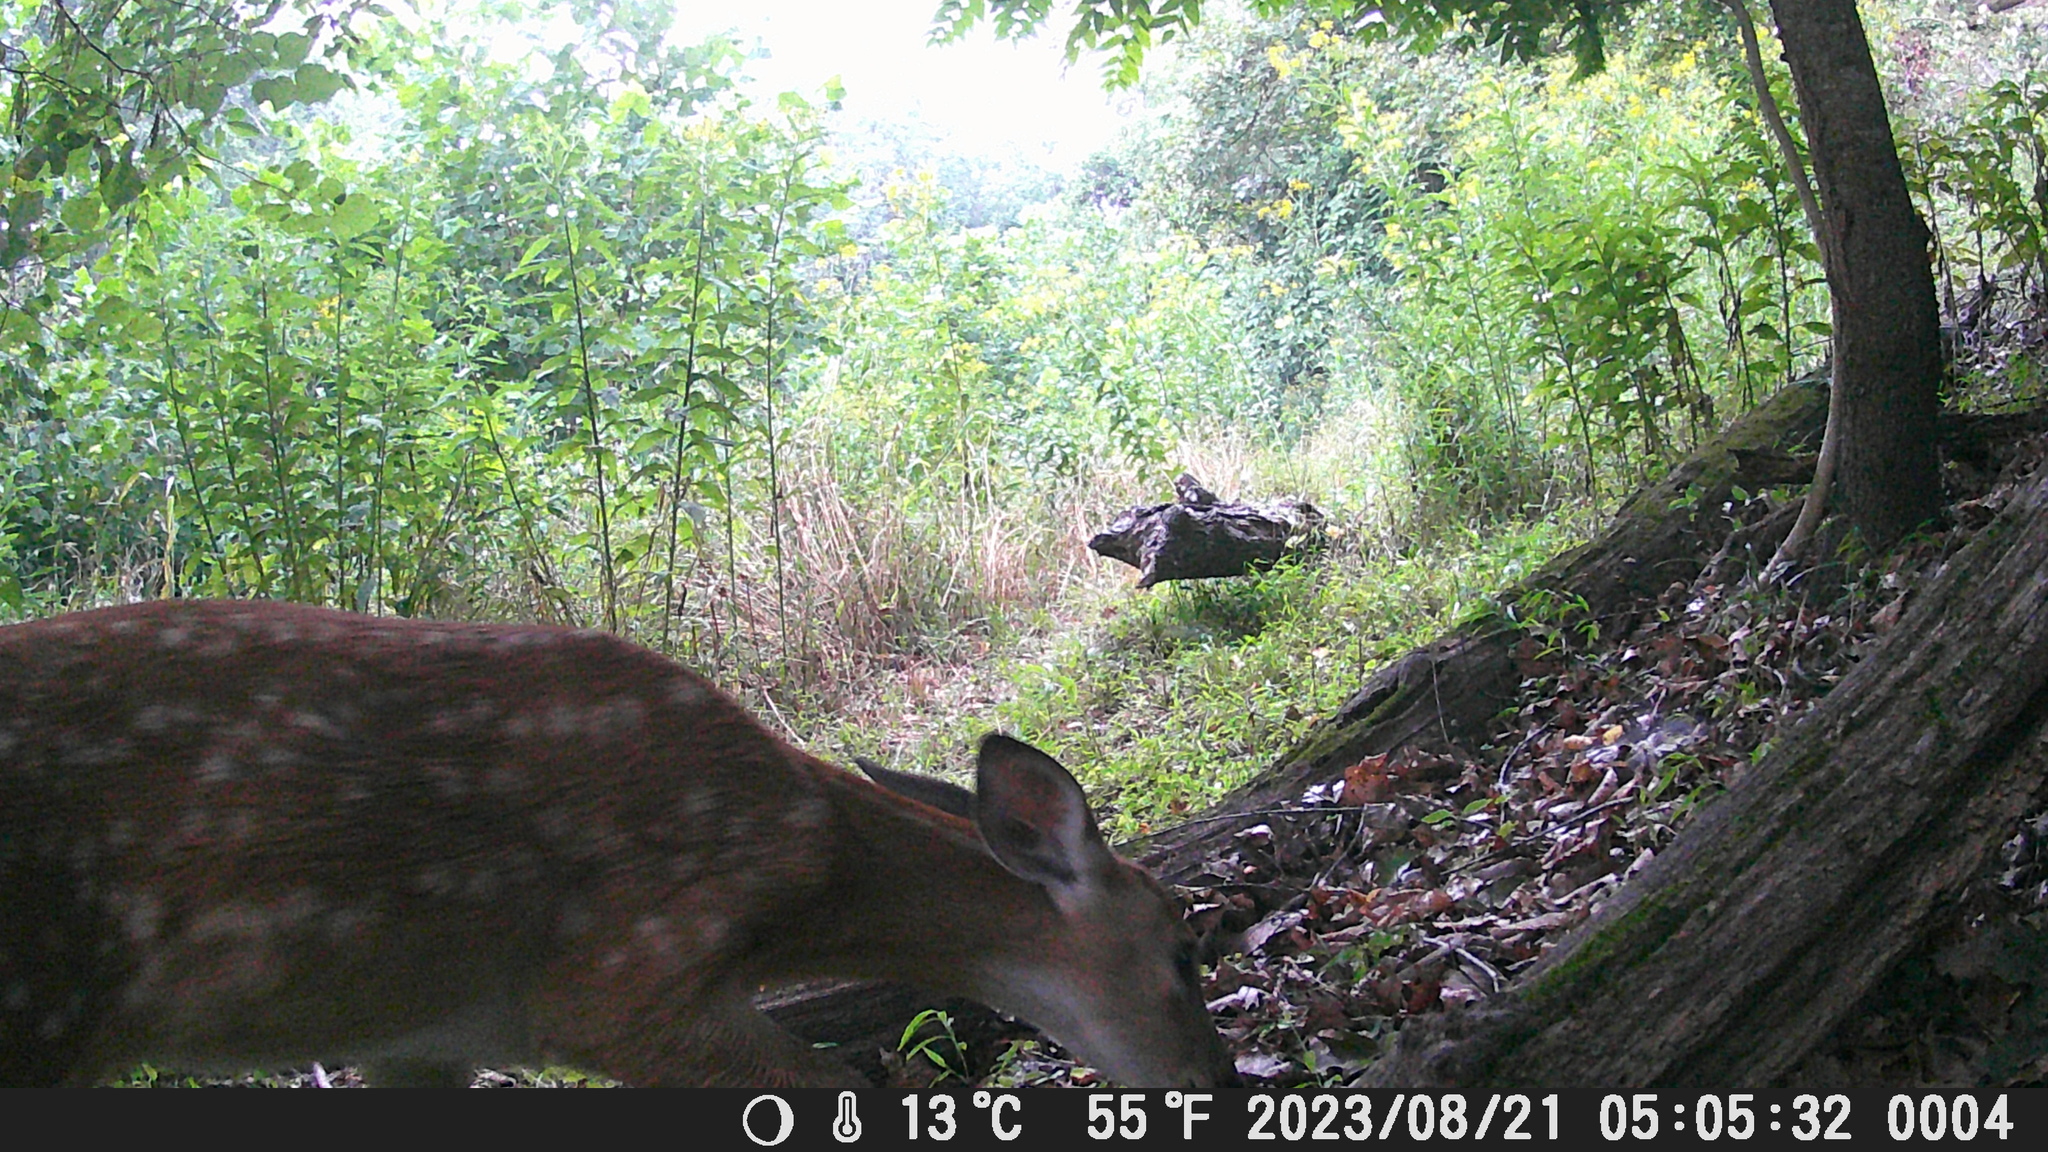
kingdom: Animalia
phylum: Chordata
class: Mammalia
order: Artiodactyla
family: Cervidae
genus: Odocoileus
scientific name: Odocoileus virginianus
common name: White-tailed deer
